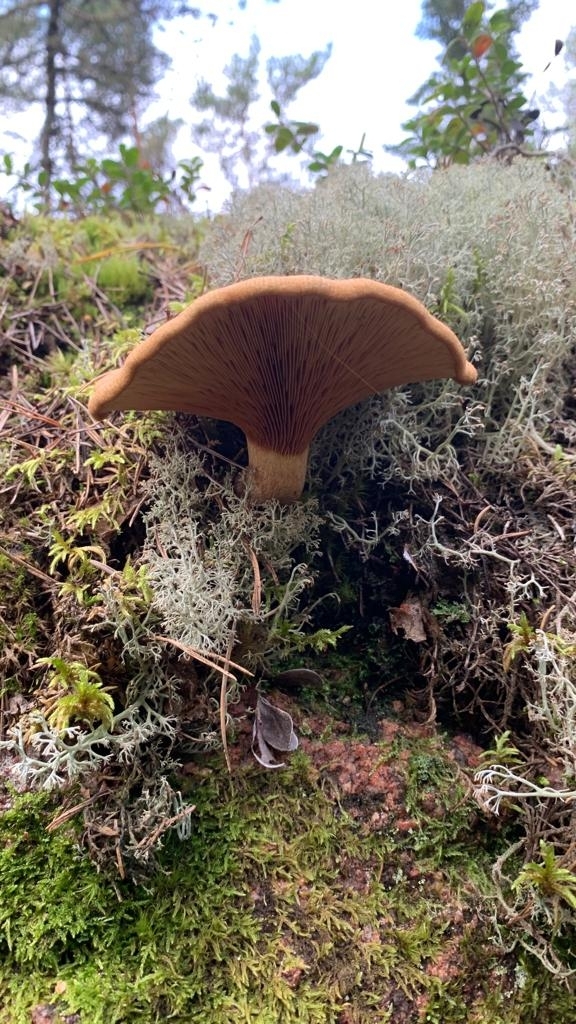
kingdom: Fungi
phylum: Basidiomycota
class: Agaricomycetes
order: Boletales
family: Paxillaceae
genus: Paxillus
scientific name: Paxillus involutus
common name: Brown roll rim
